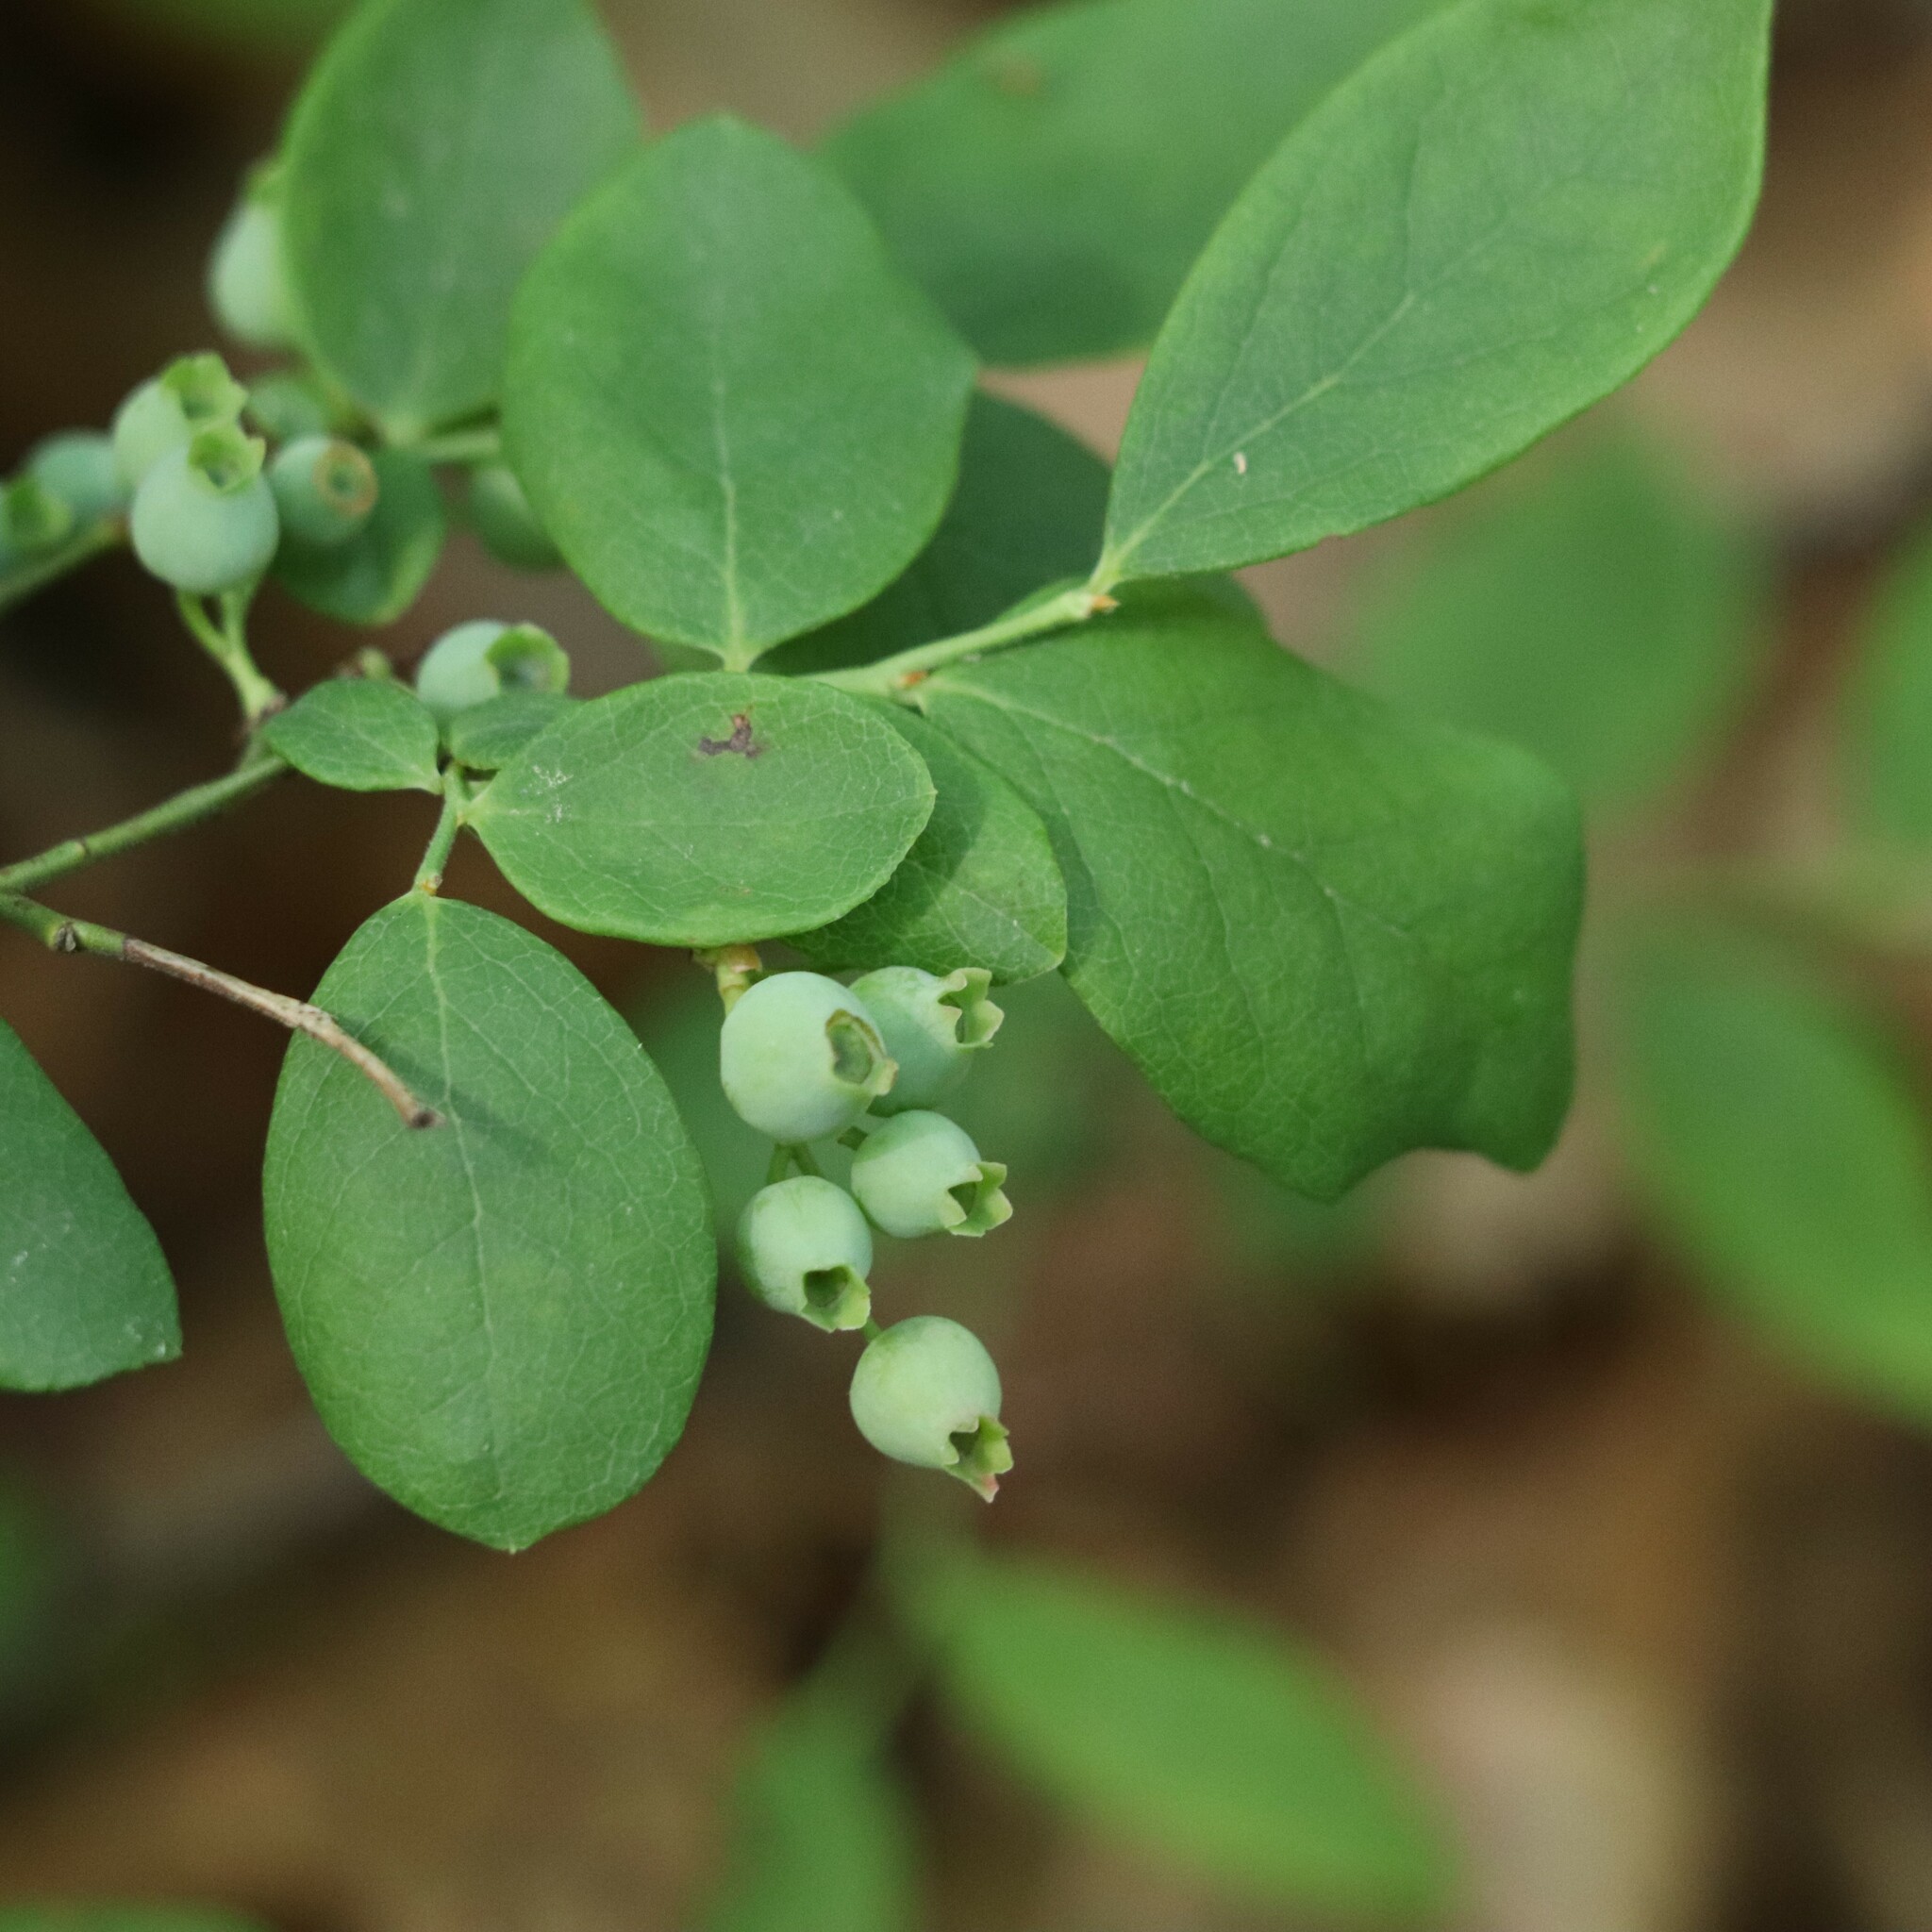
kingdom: Plantae
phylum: Tracheophyta
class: Magnoliopsida
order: Ericales
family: Ericaceae
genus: Vaccinium
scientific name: Vaccinium pallidum
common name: Blue ridge blueberry
